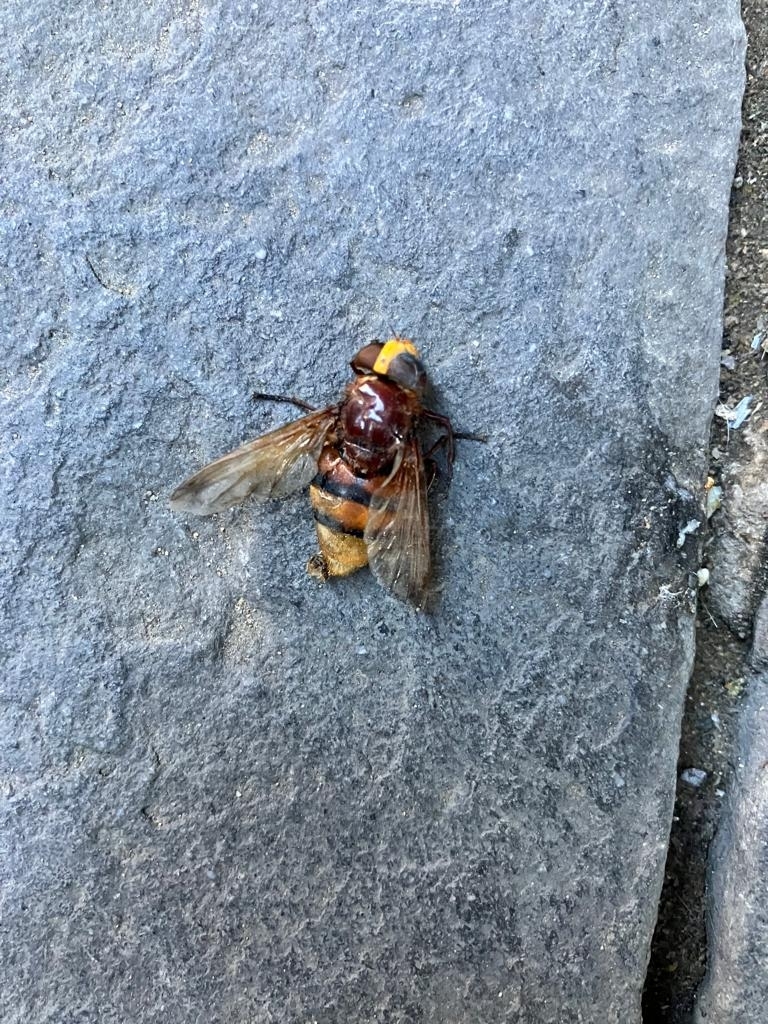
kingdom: Animalia
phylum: Arthropoda
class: Insecta
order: Diptera
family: Syrphidae
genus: Volucella
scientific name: Volucella zonaria
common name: Hornet hoverfly
